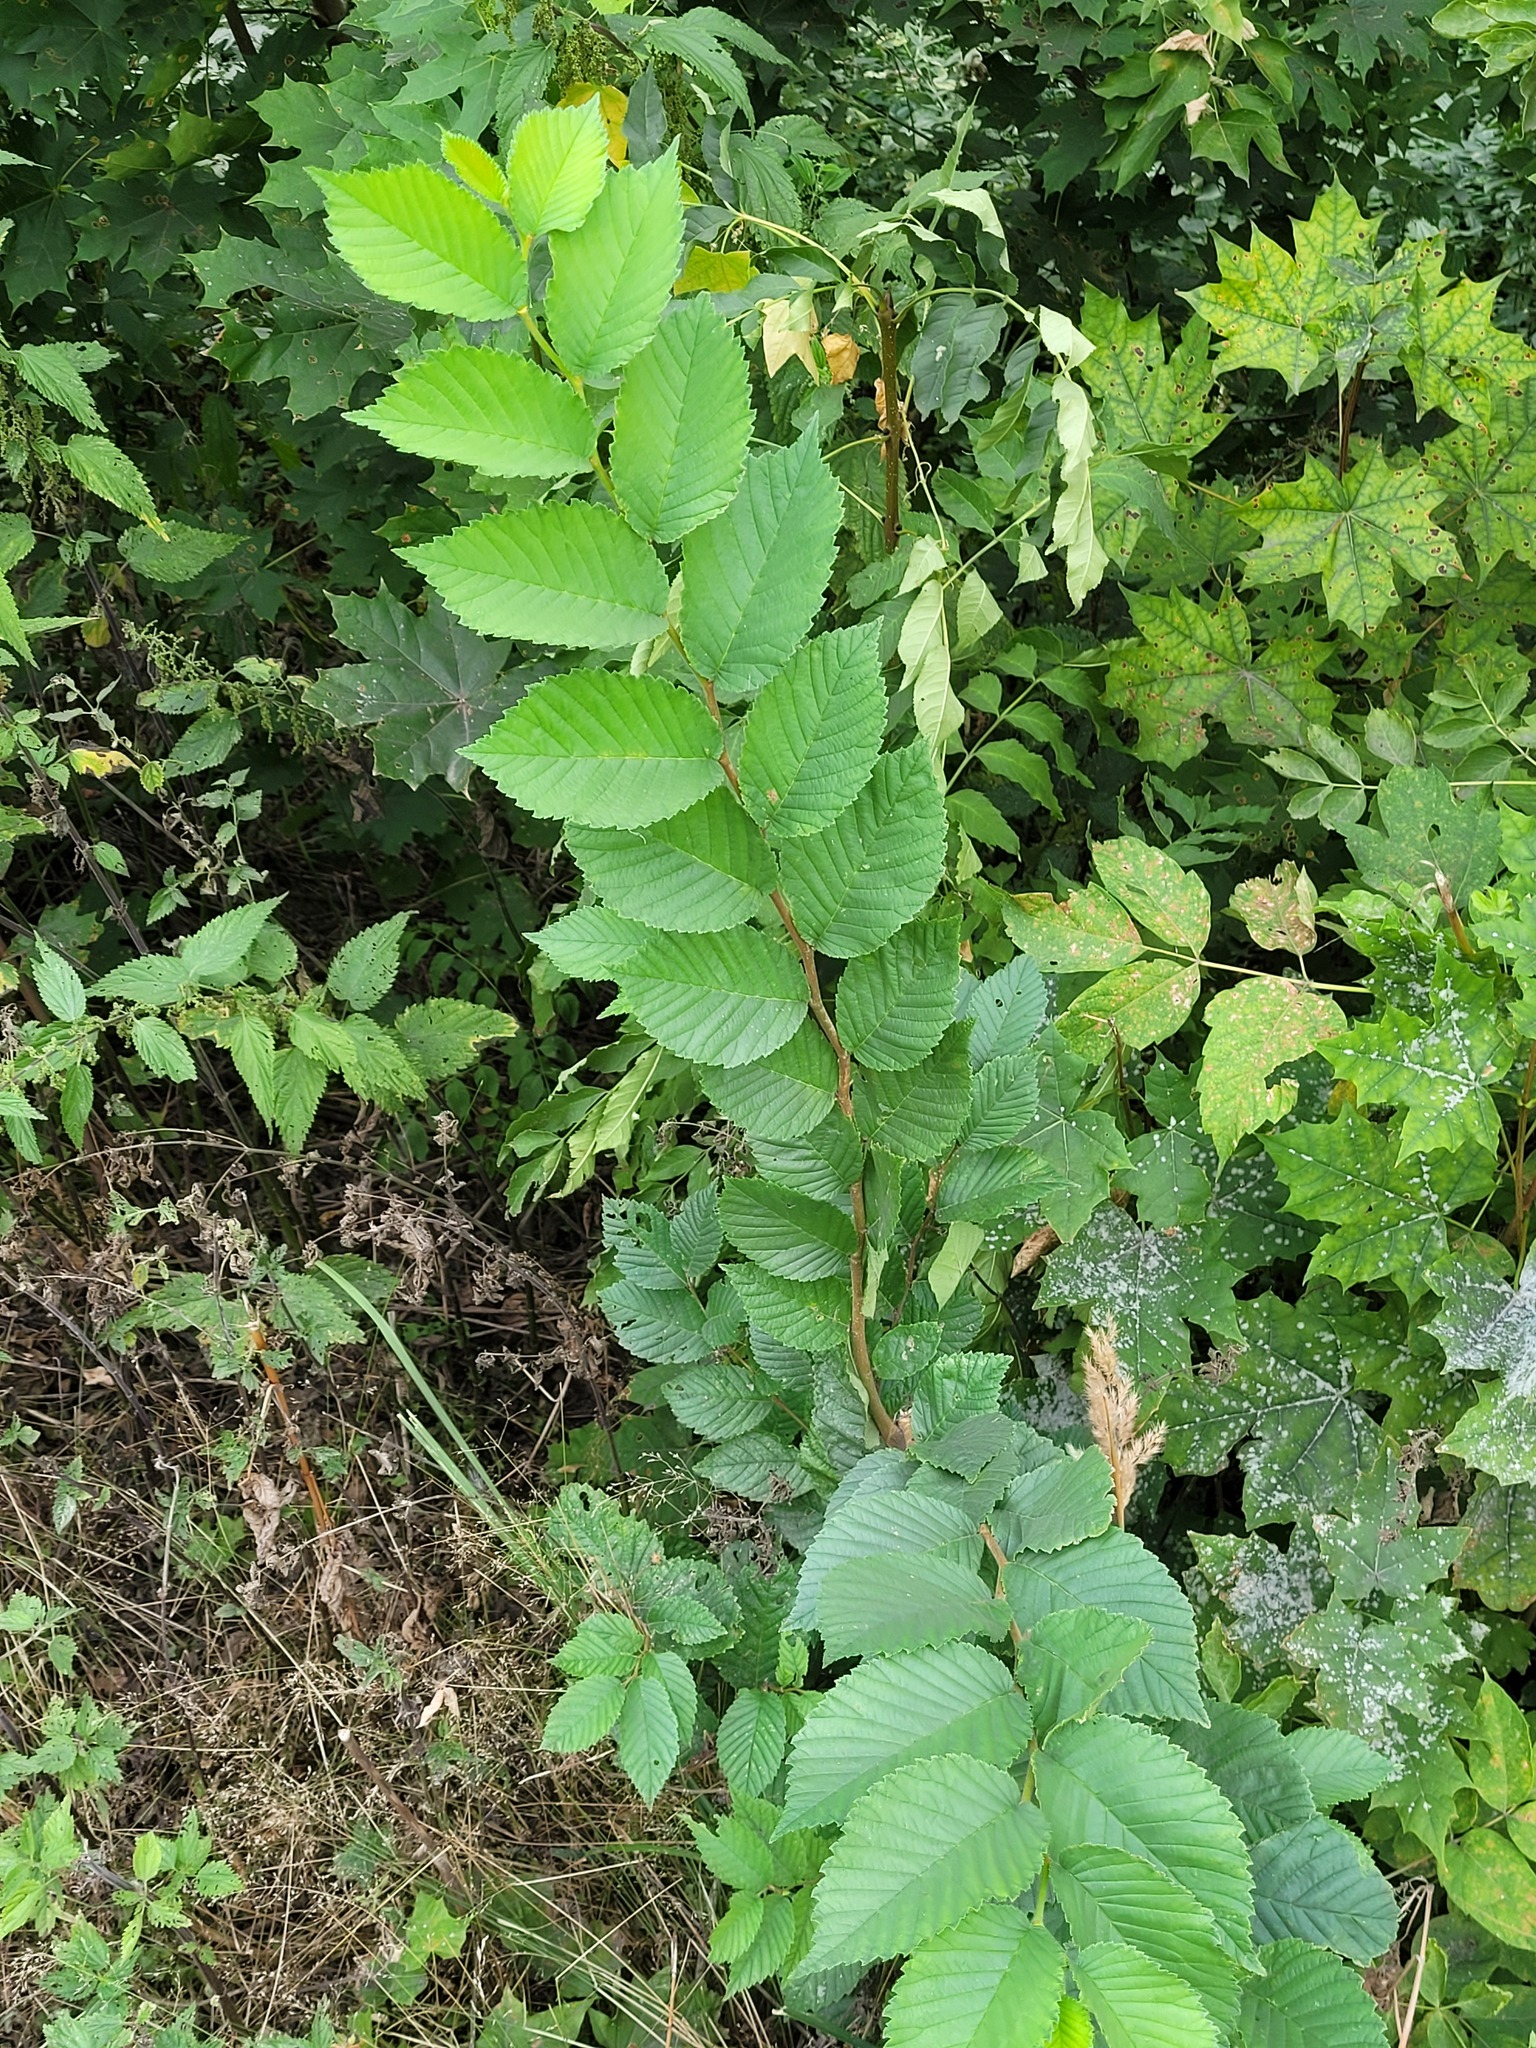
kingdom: Plantae
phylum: Tracheophyta
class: Magnoliopsida
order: Rosales
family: Ulmaceae
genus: Ulmus
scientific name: Ulmus glabra
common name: Wych elm
